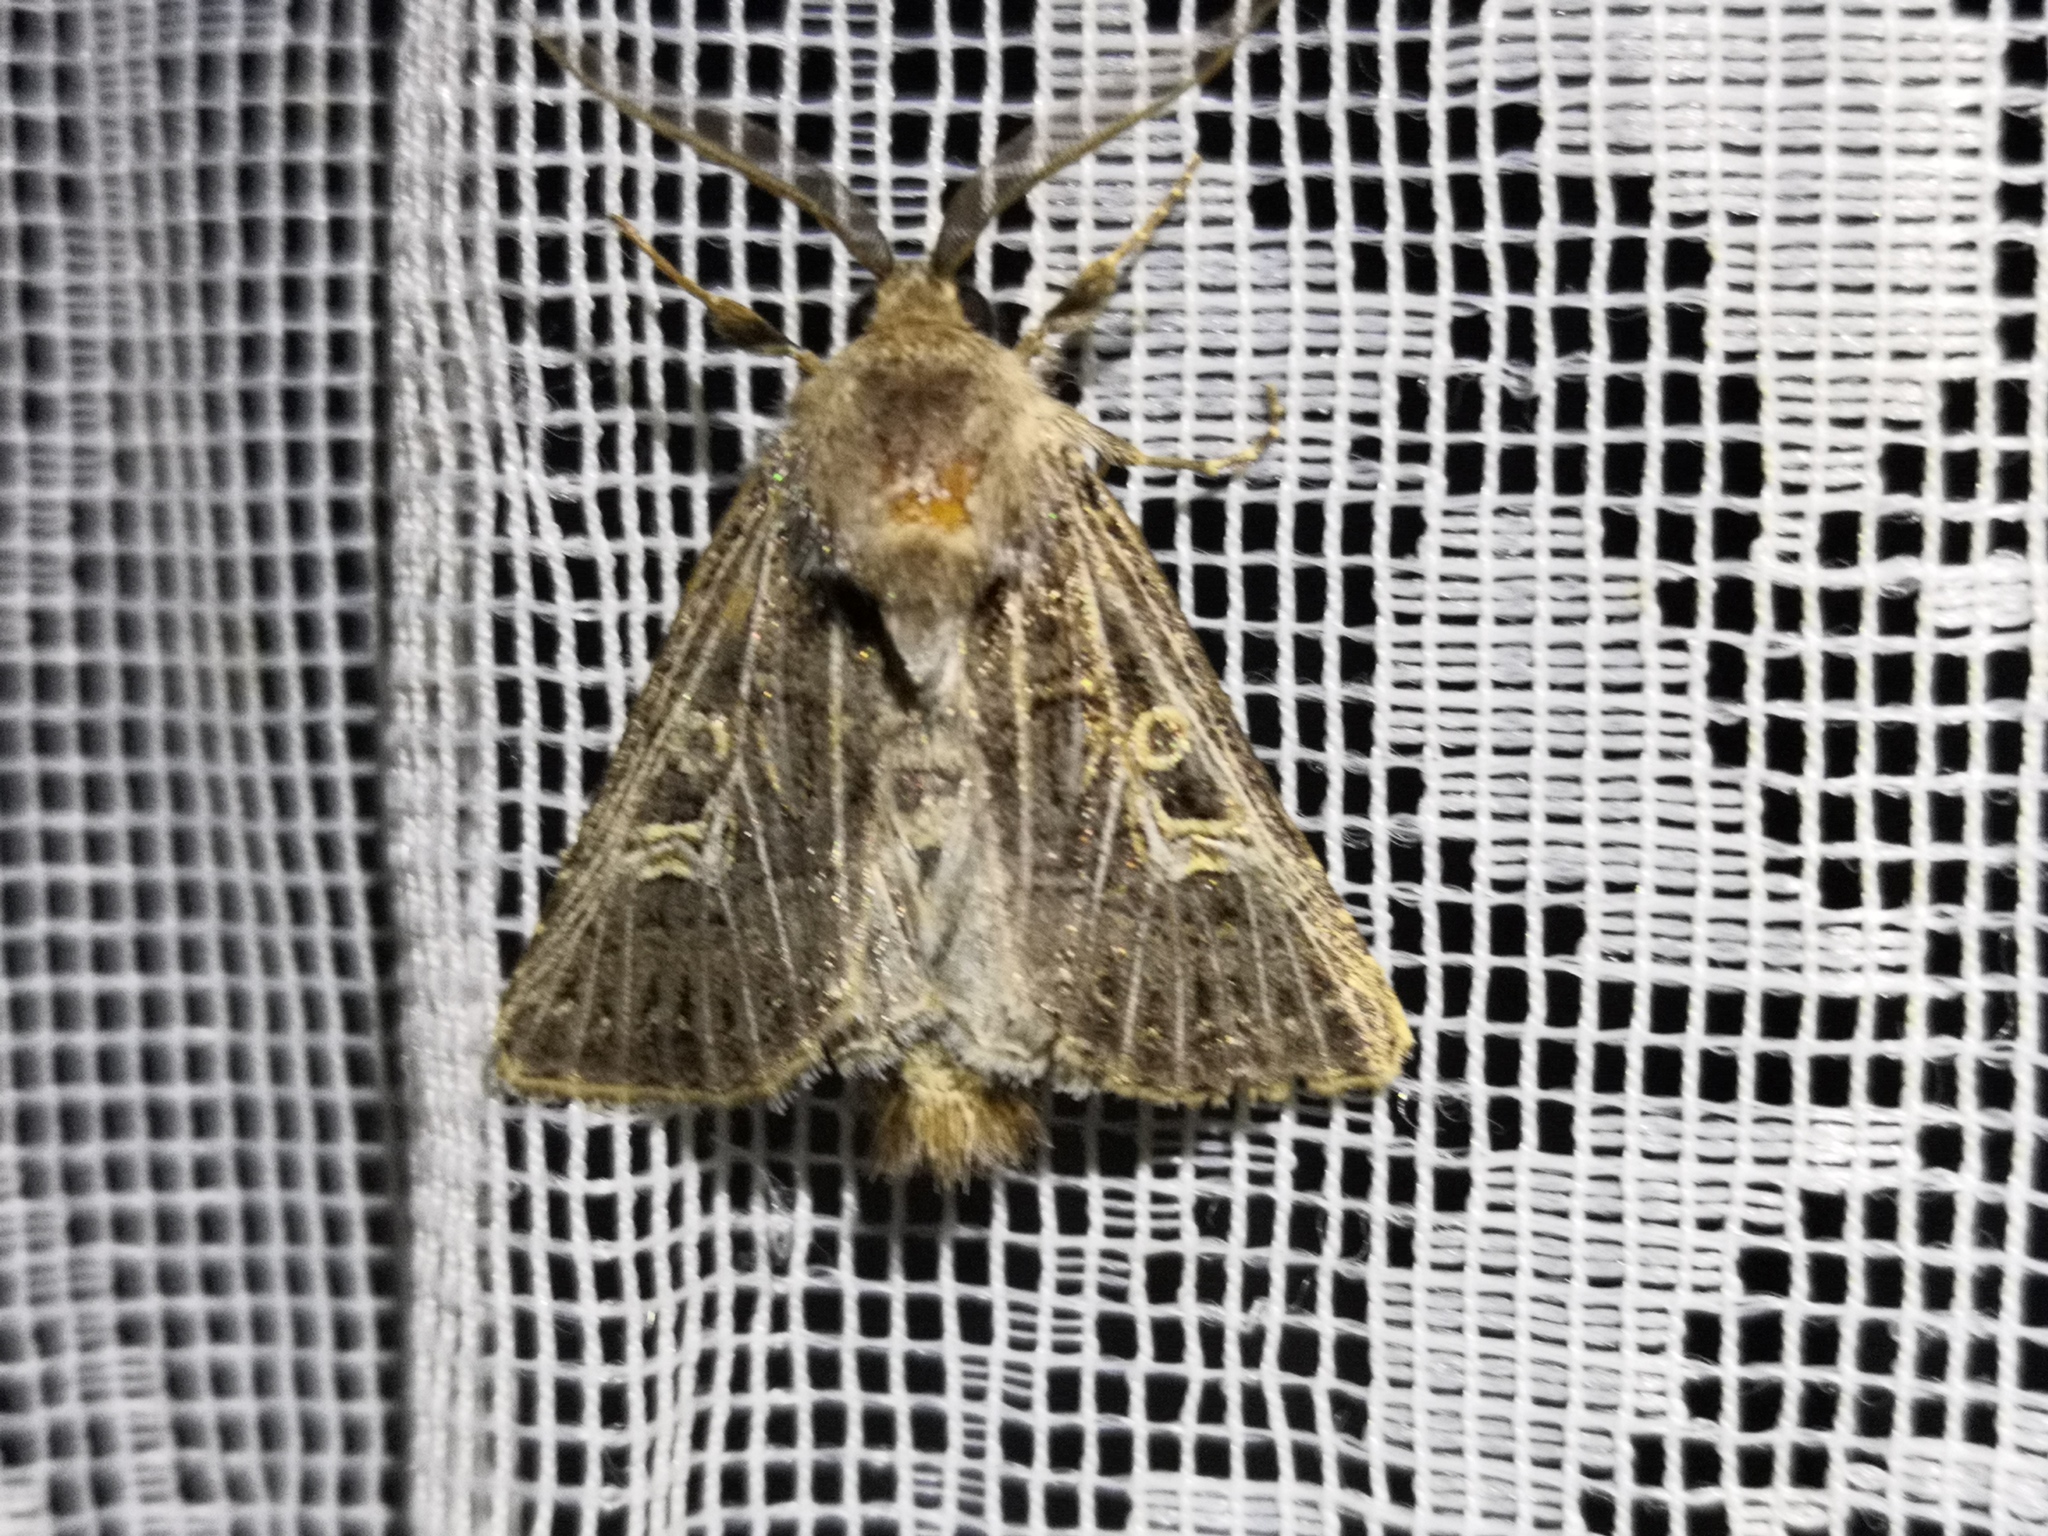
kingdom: Animalia
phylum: Arthropoda
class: Insecta
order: Lepidoptera
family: Noctuidae
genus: Tholera
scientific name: Tholera decimalis
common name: Feathered gothic
